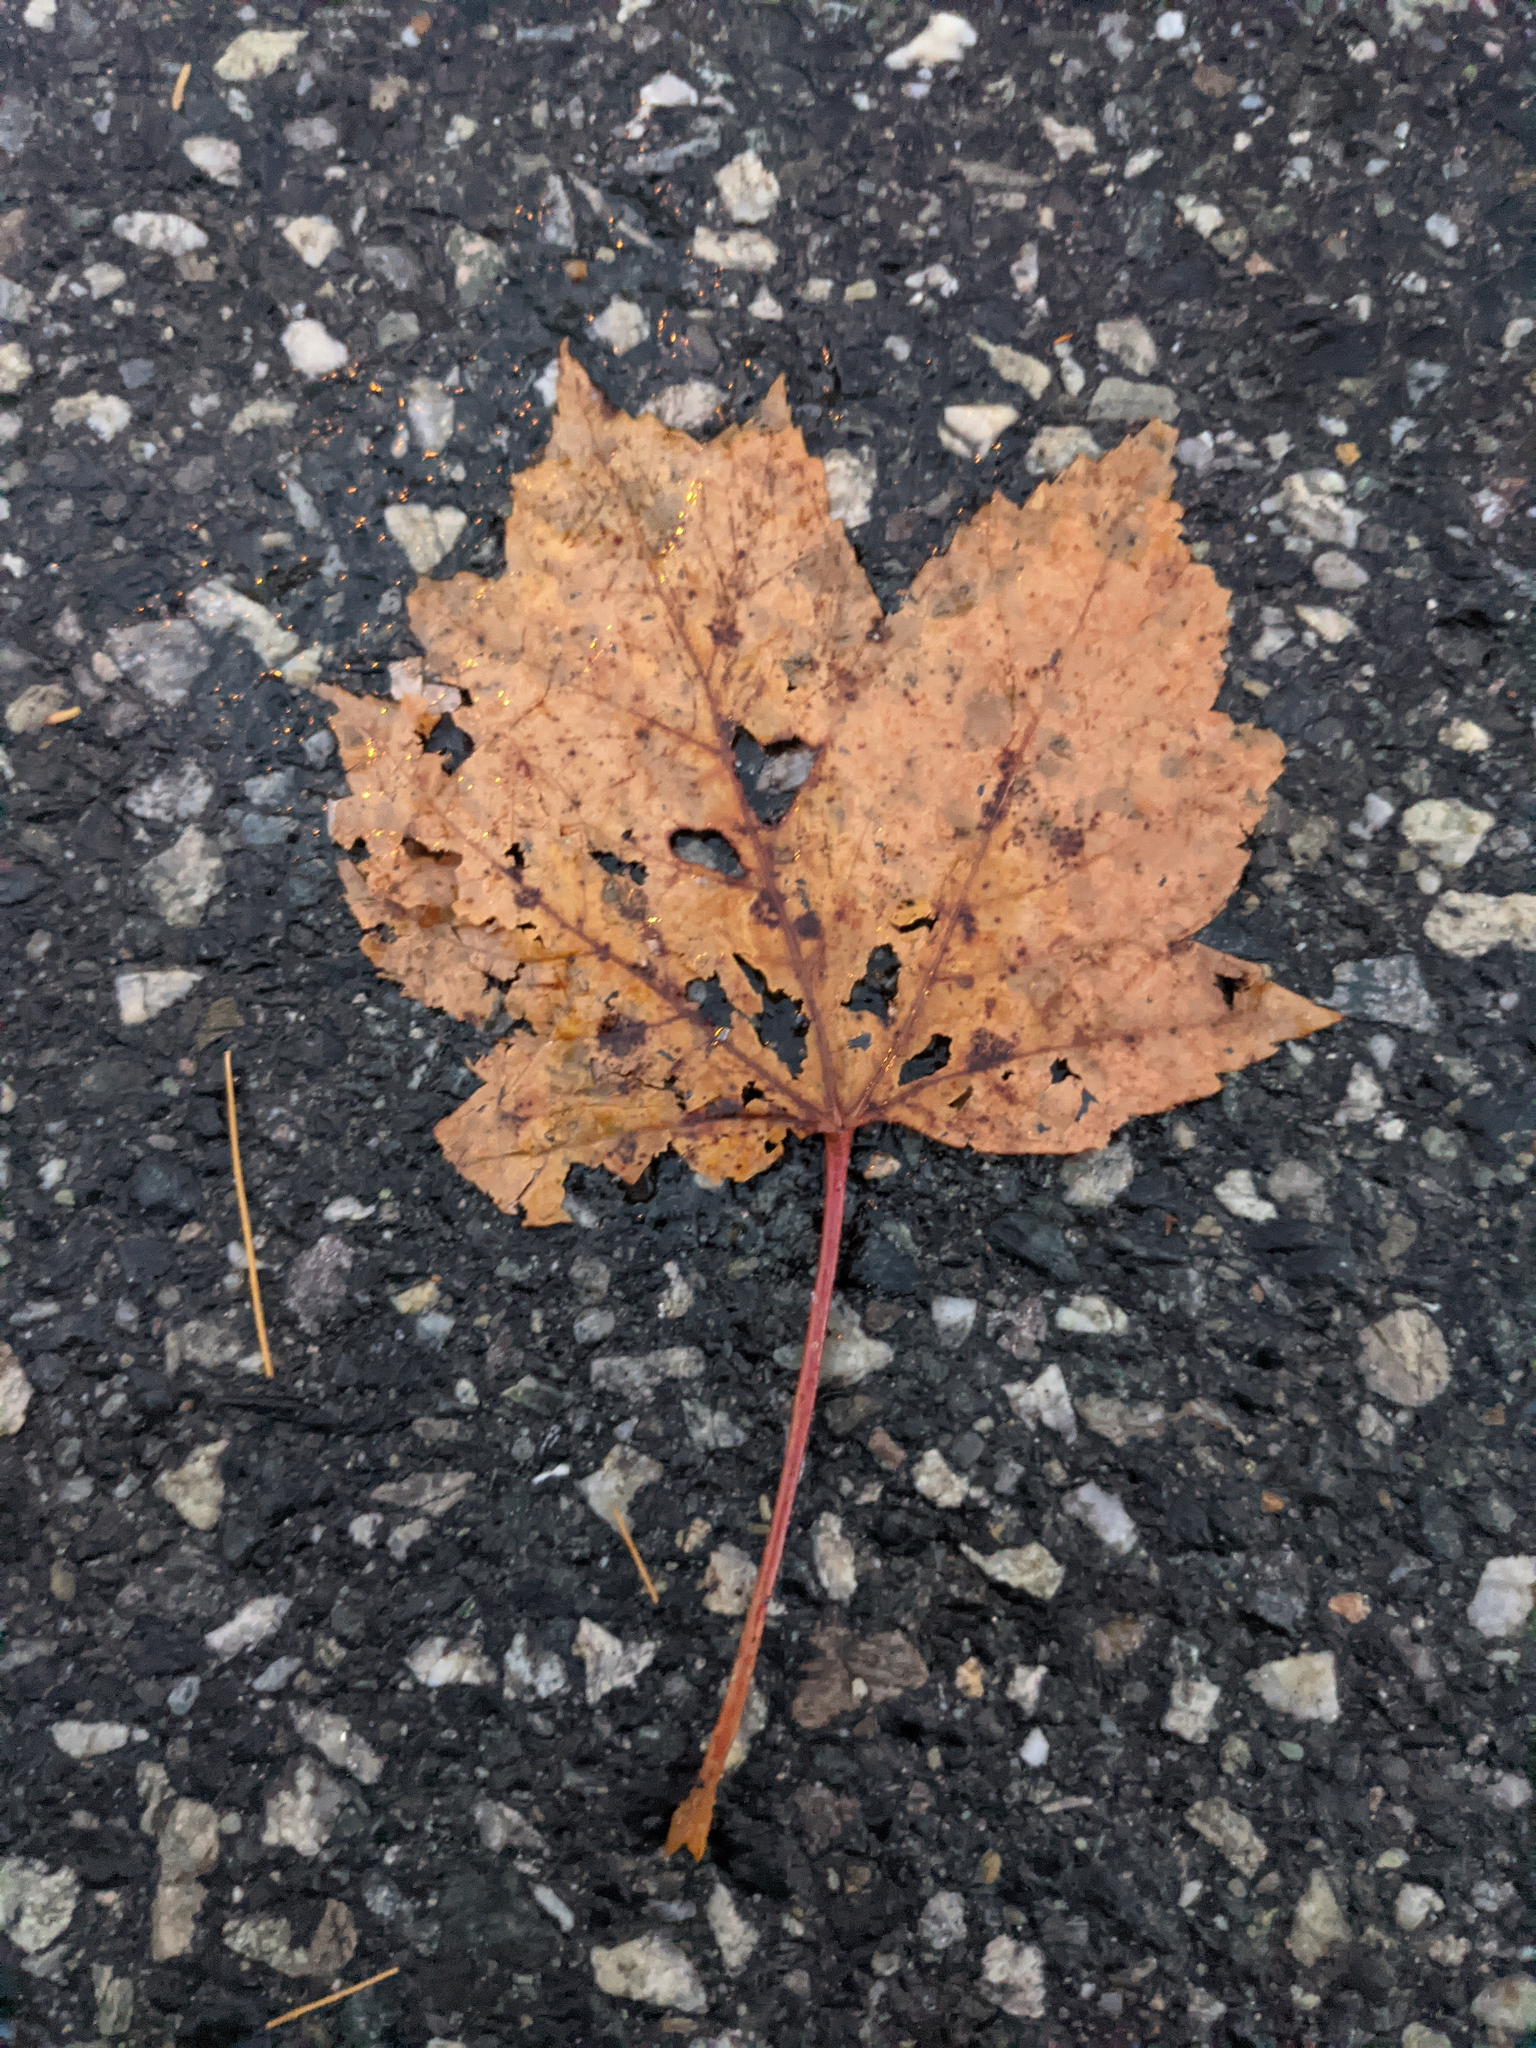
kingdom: Plantae
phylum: Tracheophyta
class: Magnoliopsida
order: Sapindales
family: Sapindaceae
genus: Acer
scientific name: Acer rubrum
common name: Red maple
